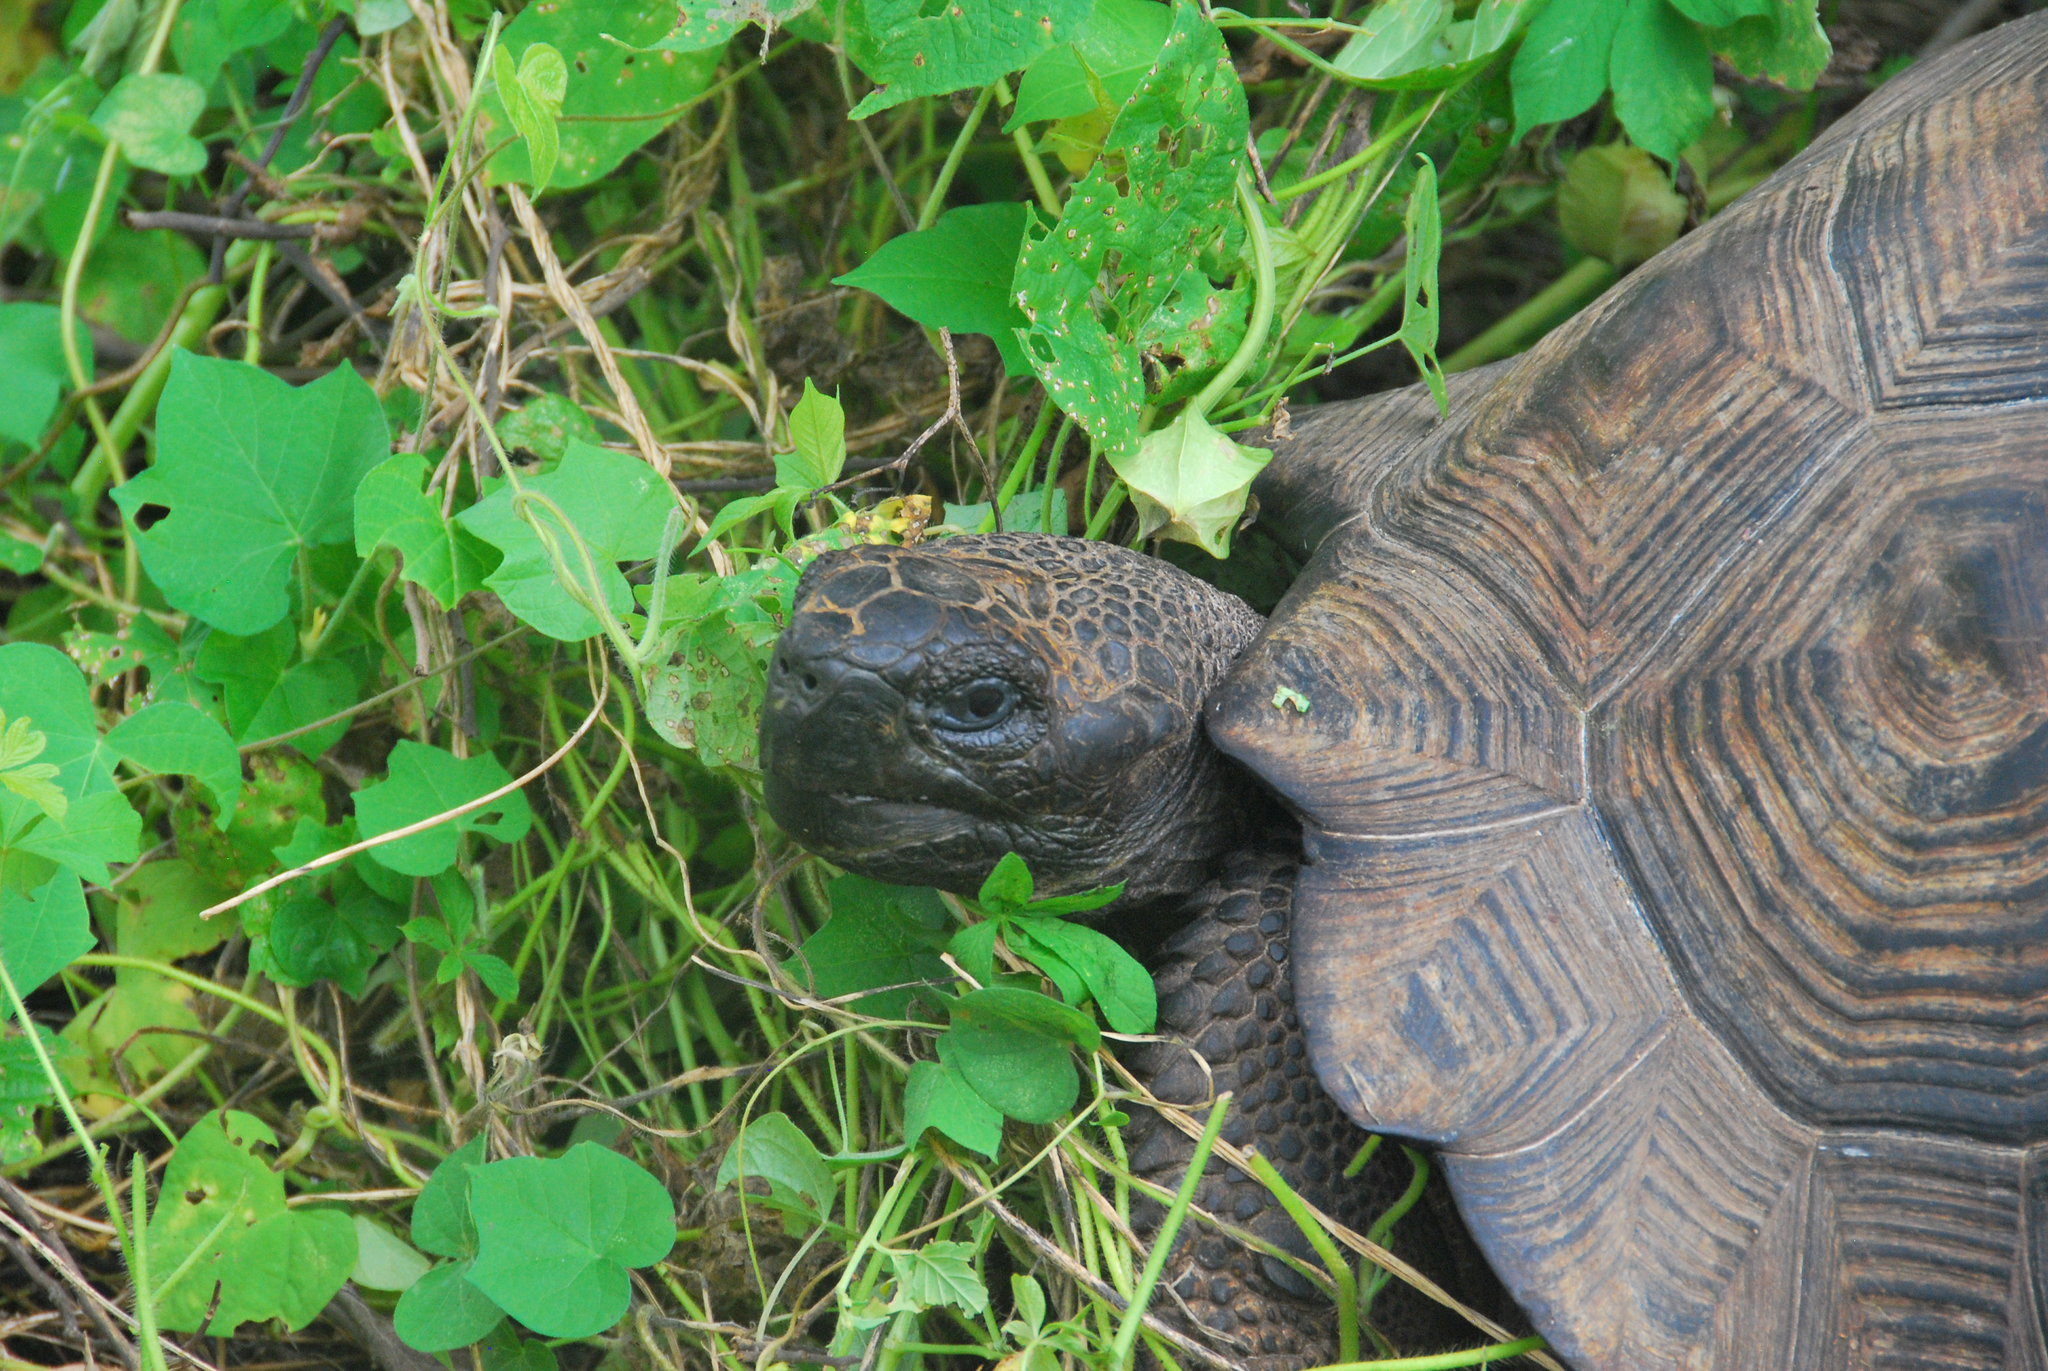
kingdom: Animalia
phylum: Chordata
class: Testudines
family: Testudinidae
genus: Chelonoidis
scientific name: Chelonoidis vandenburghi
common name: Alcedo volcano giant tortoise
